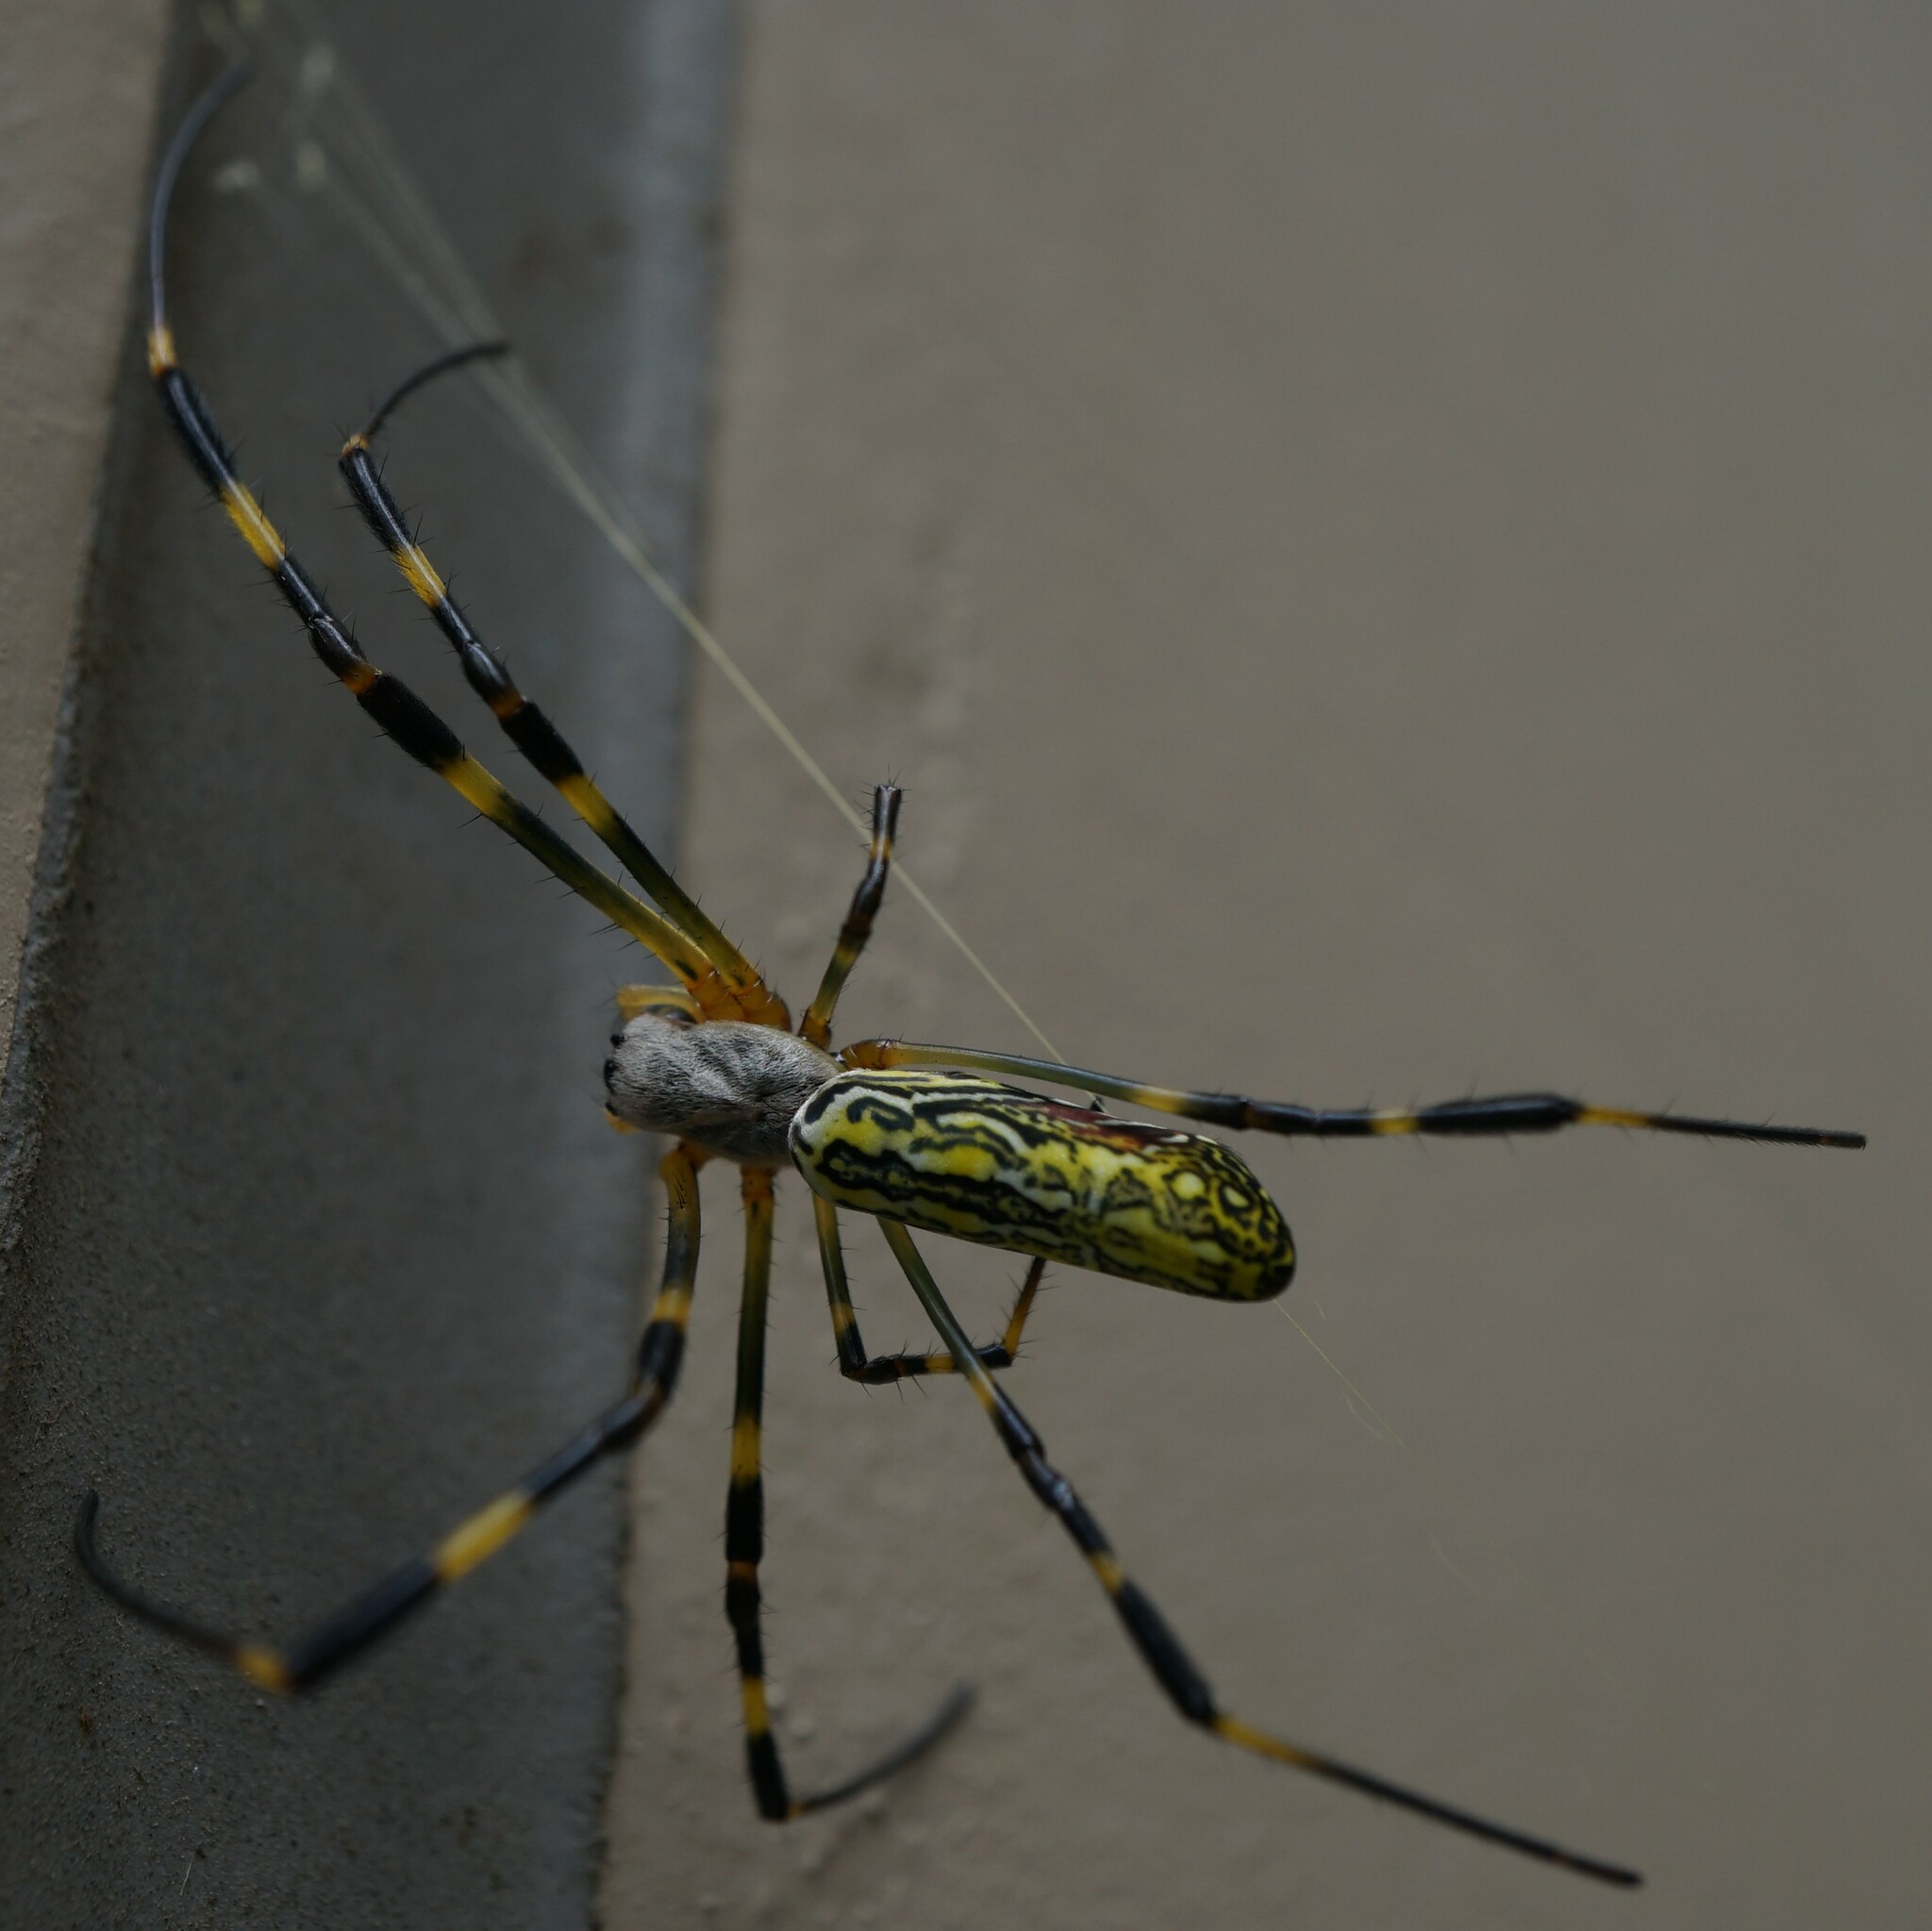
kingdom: Animalia
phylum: Arthropoda
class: Arachnida
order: Araneae
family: Araneidae
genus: Trichonephila
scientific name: Trichonephila clavata
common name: Jorō spider
